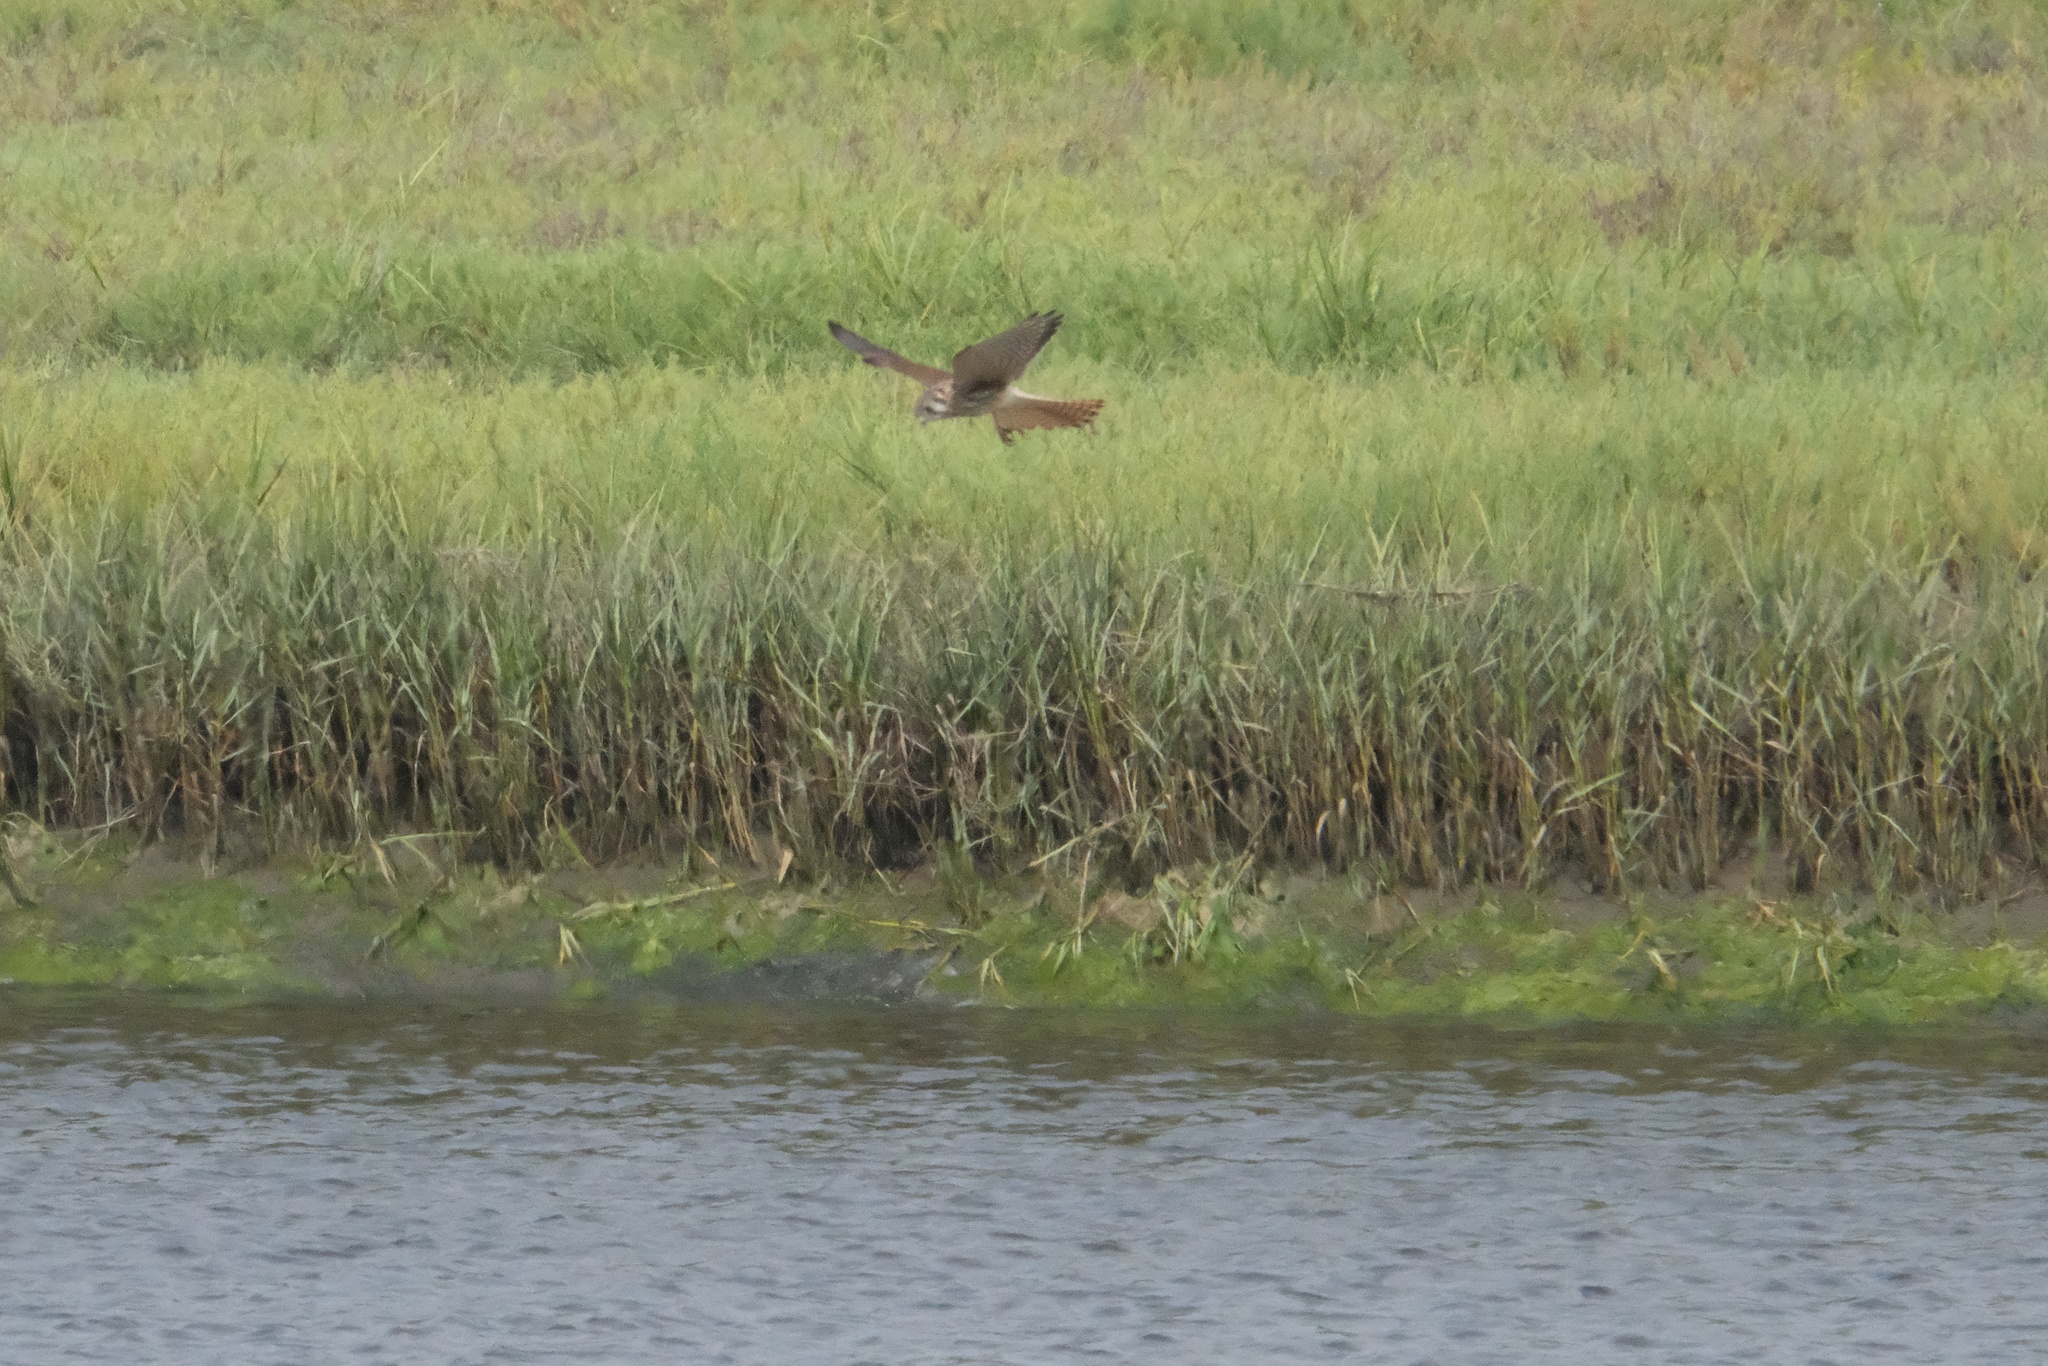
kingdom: Animalia
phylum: Chordata
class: Aves
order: Falconiformes
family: Falconidae
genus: Falco
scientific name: Falco sparverius
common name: American kestrel
